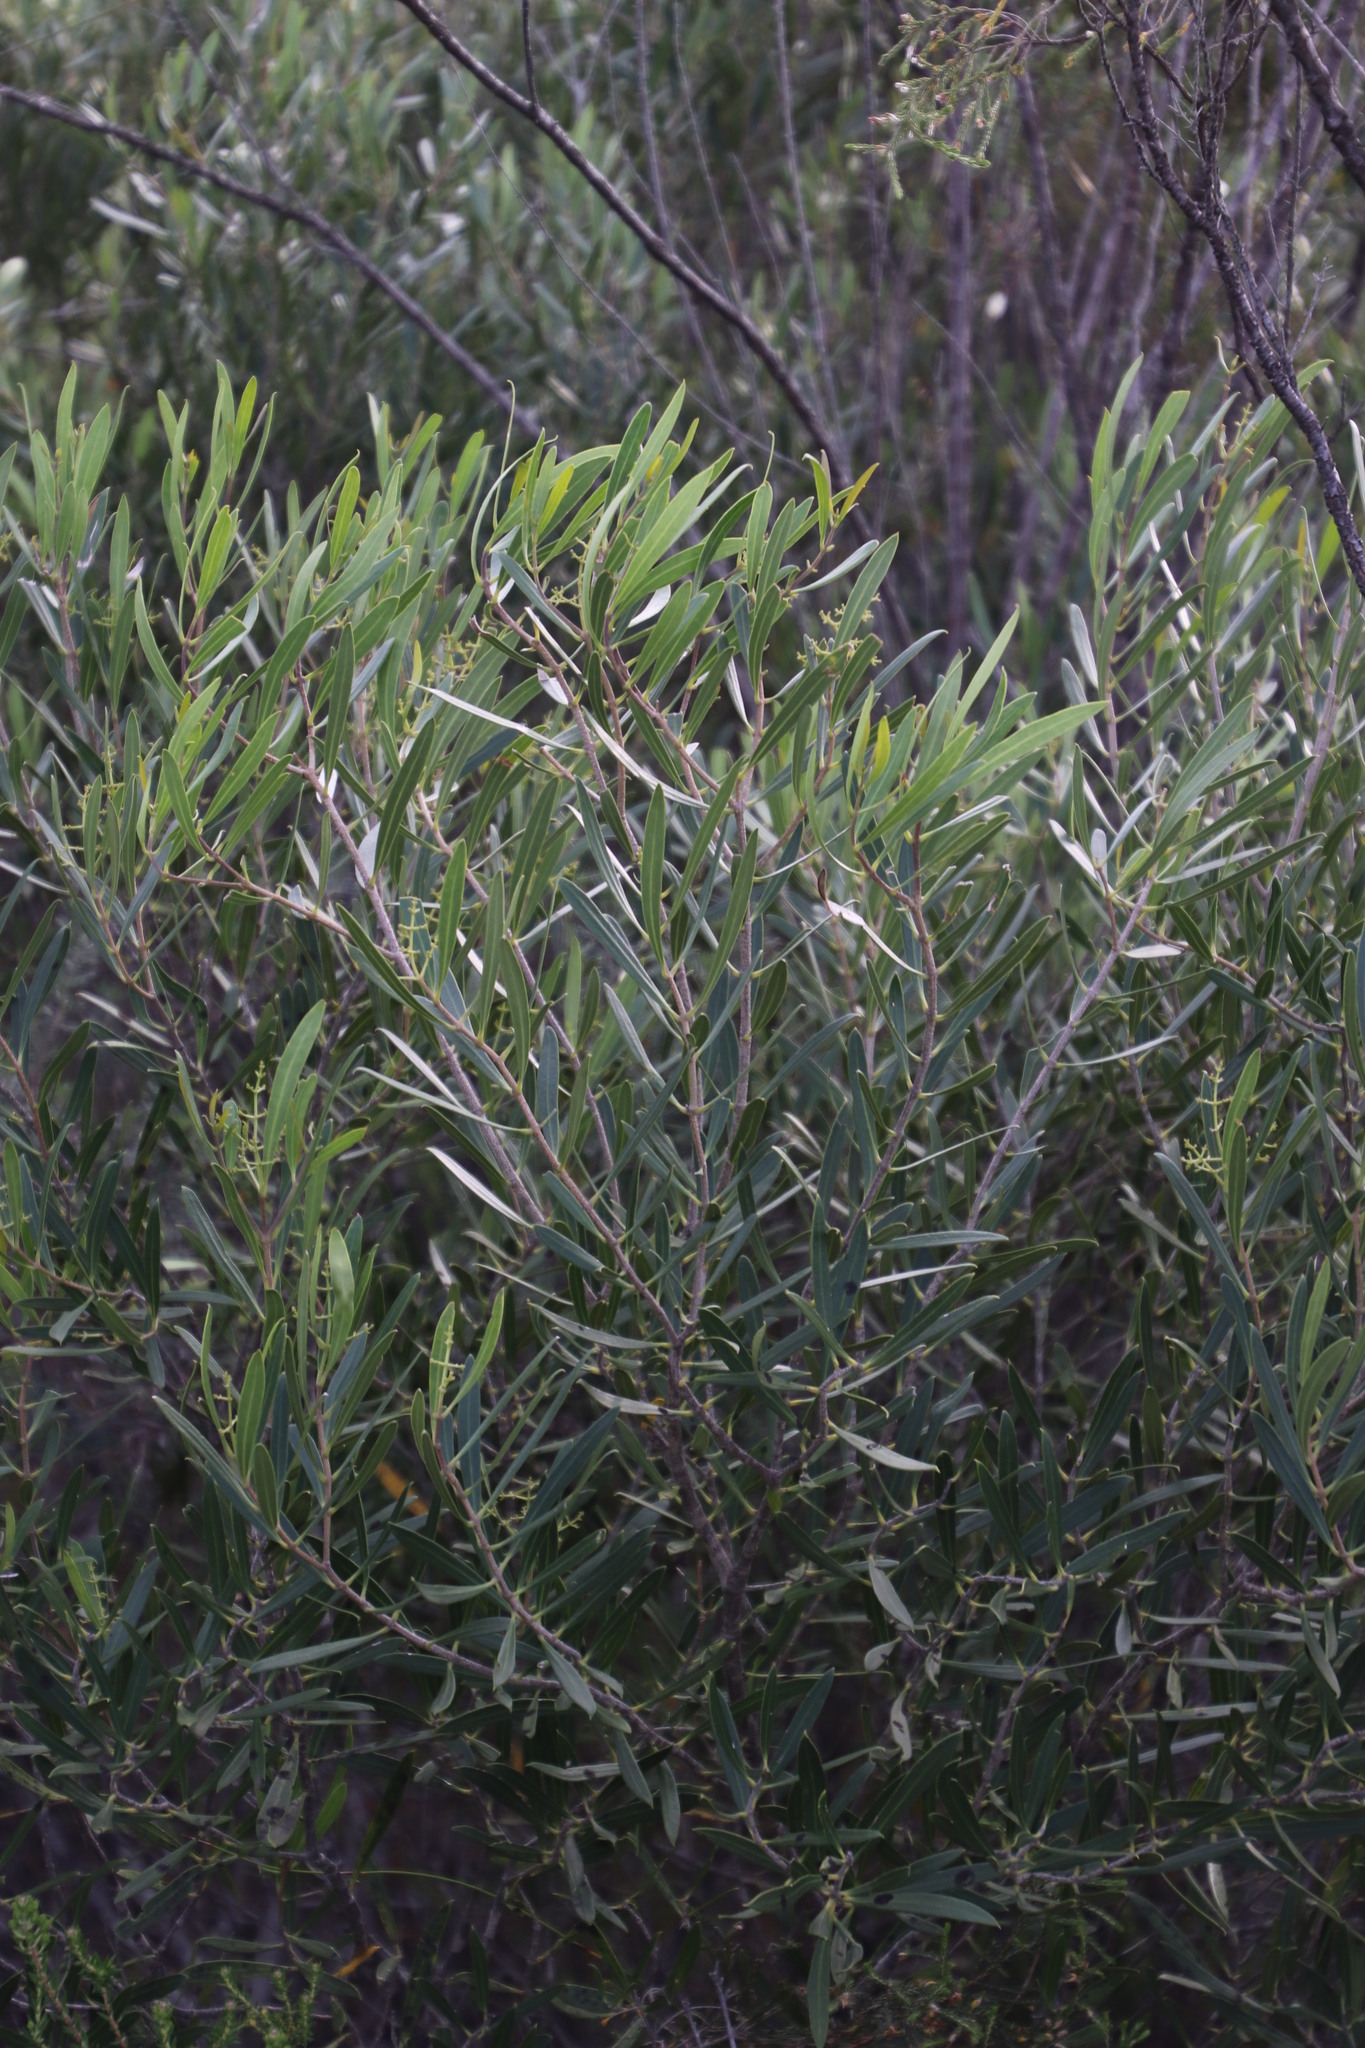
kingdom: Plantae
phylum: Tracheophyta
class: Magnoliopsida
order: Lamiales
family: Oleaceae
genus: Olea
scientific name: Olea exasperata
